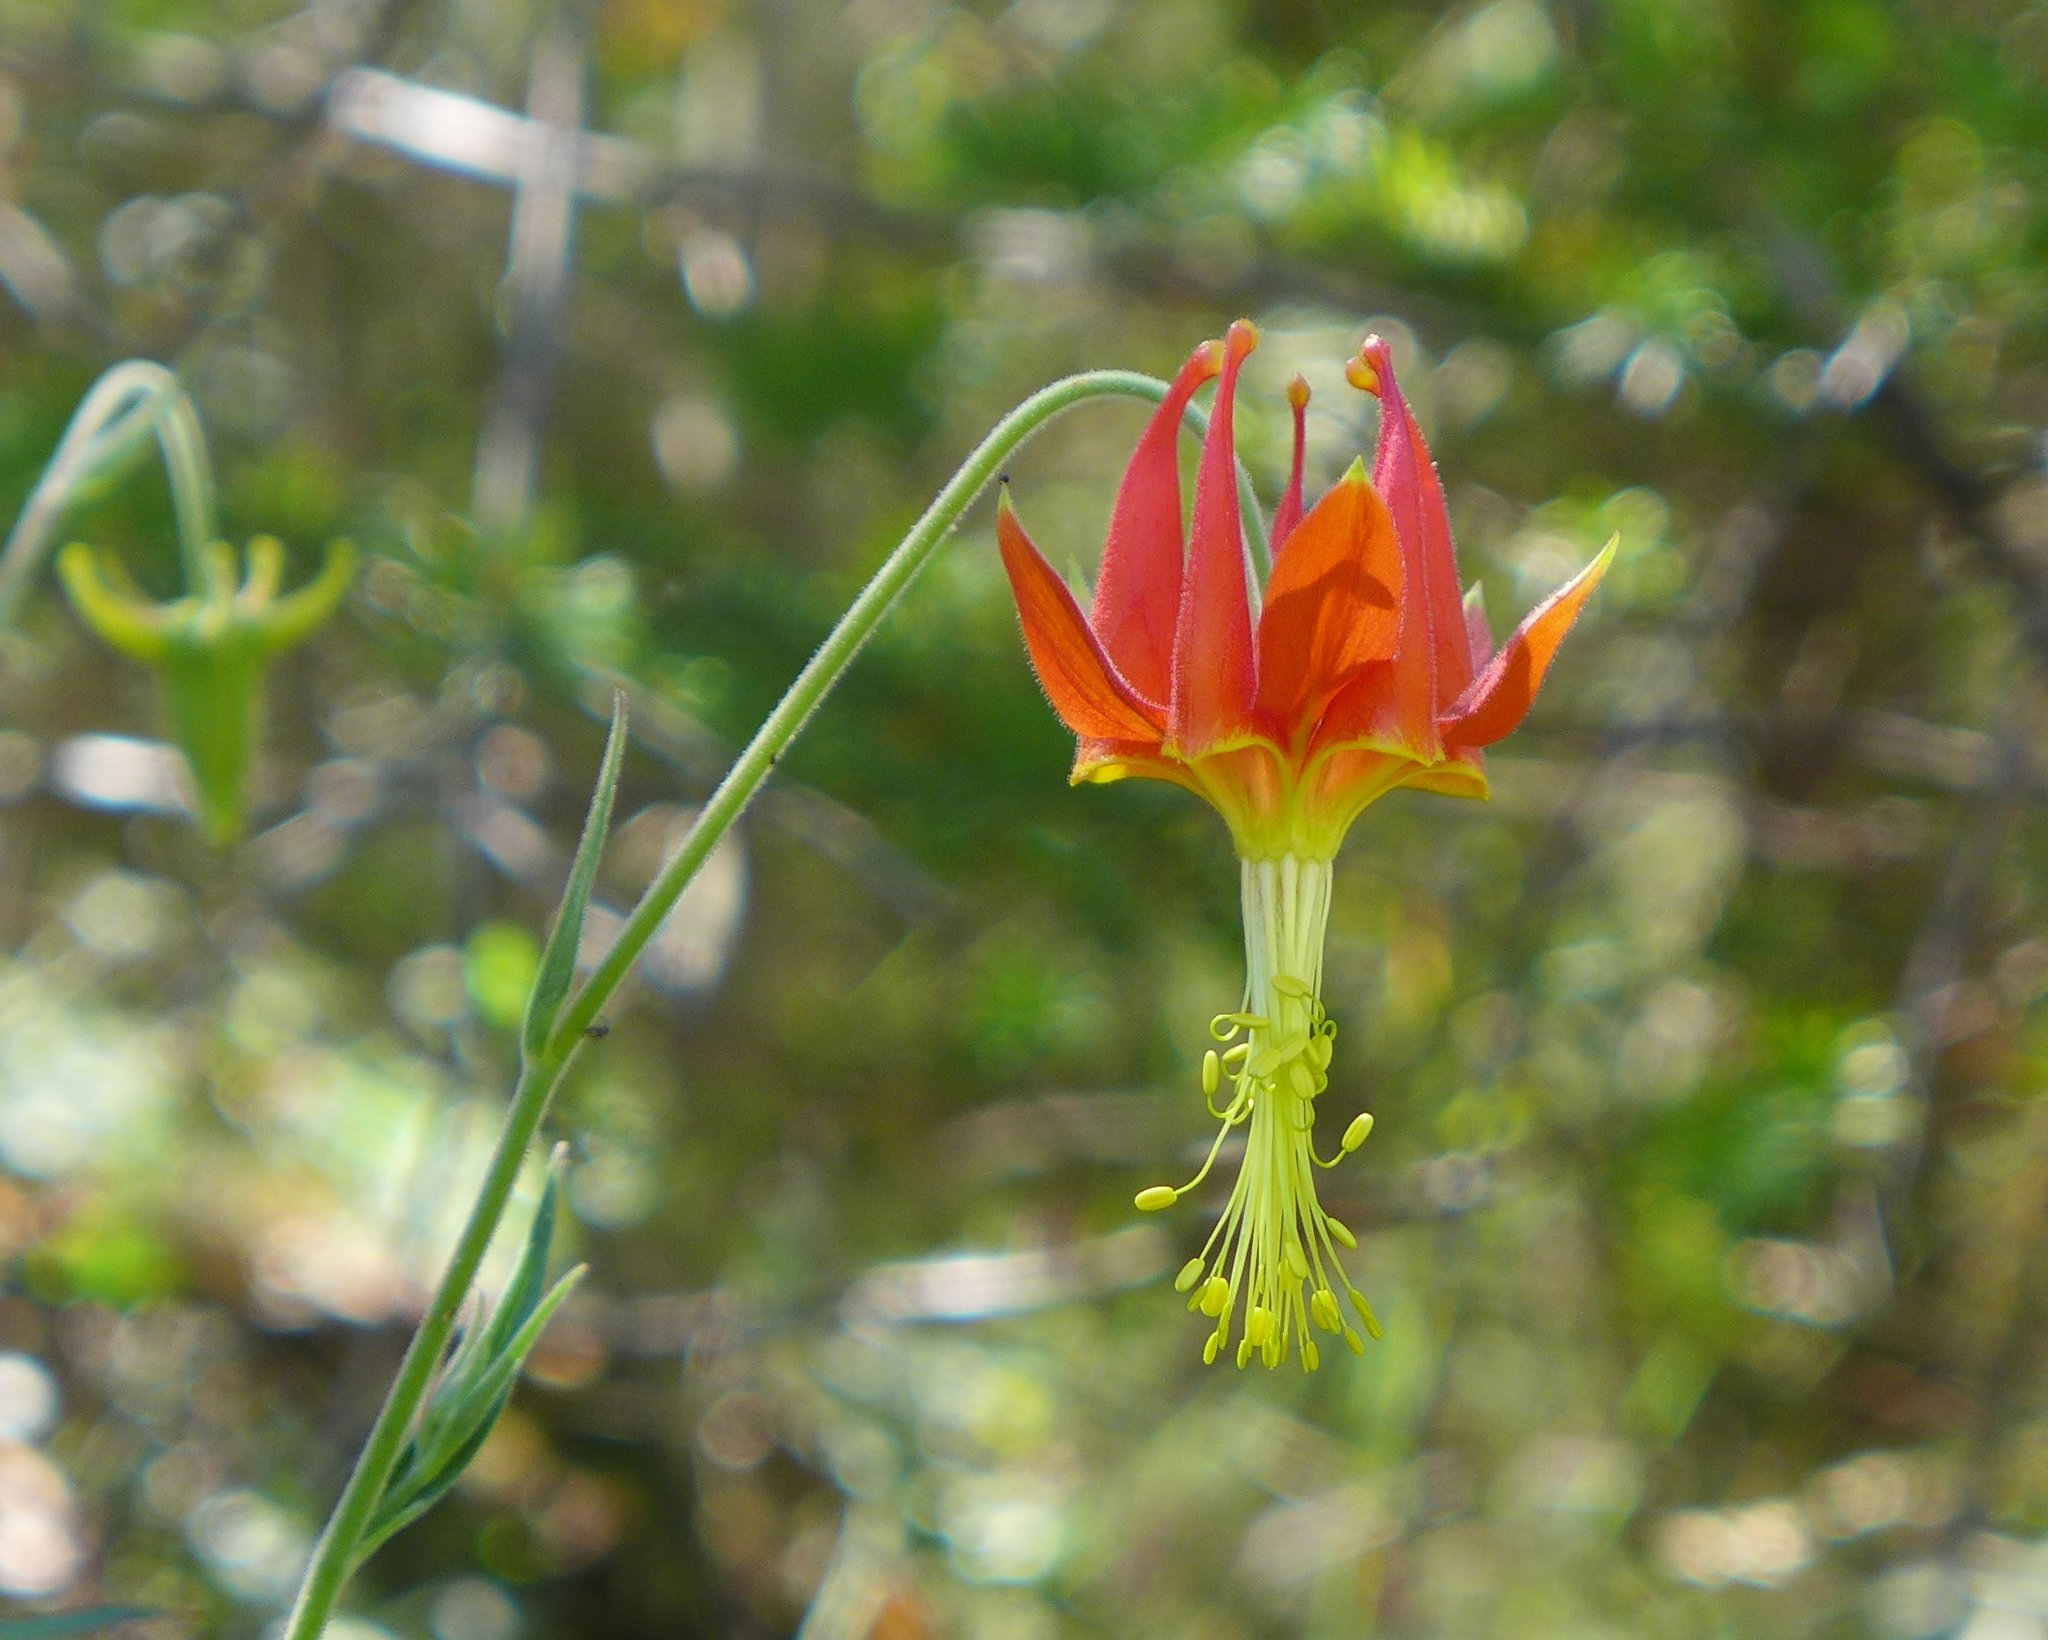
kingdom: Plantae
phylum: Tracheophyta
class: Magnoliopsida
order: Ranunculales
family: Ranunculaceae
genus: Aquilegia
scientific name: Aquilegia eximia
